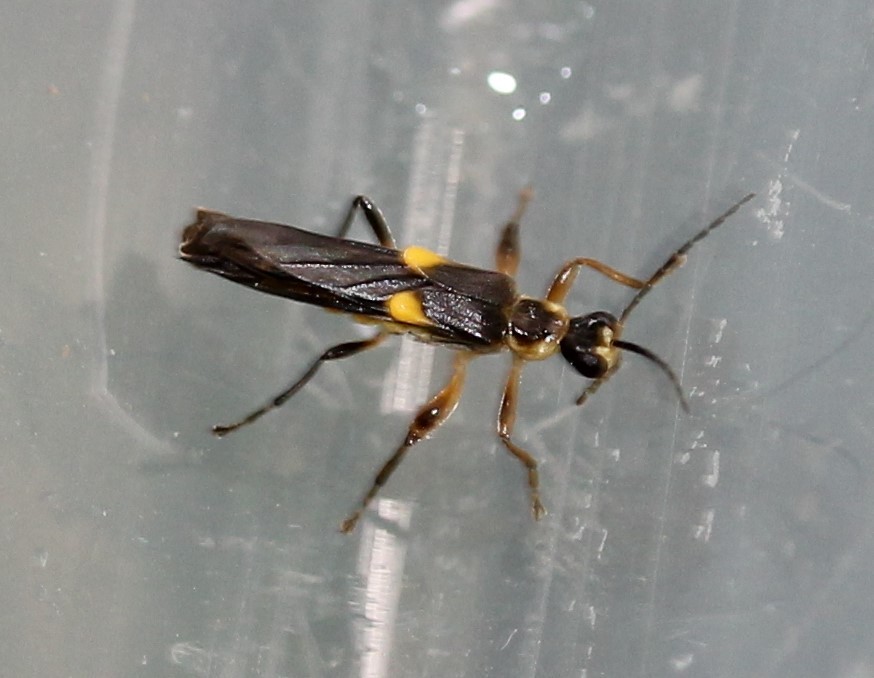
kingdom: Animalia
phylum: Arthropoda
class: Insecta
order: Coleoptera
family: Cantharidae
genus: Trypherus
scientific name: Trypherus frisoni
